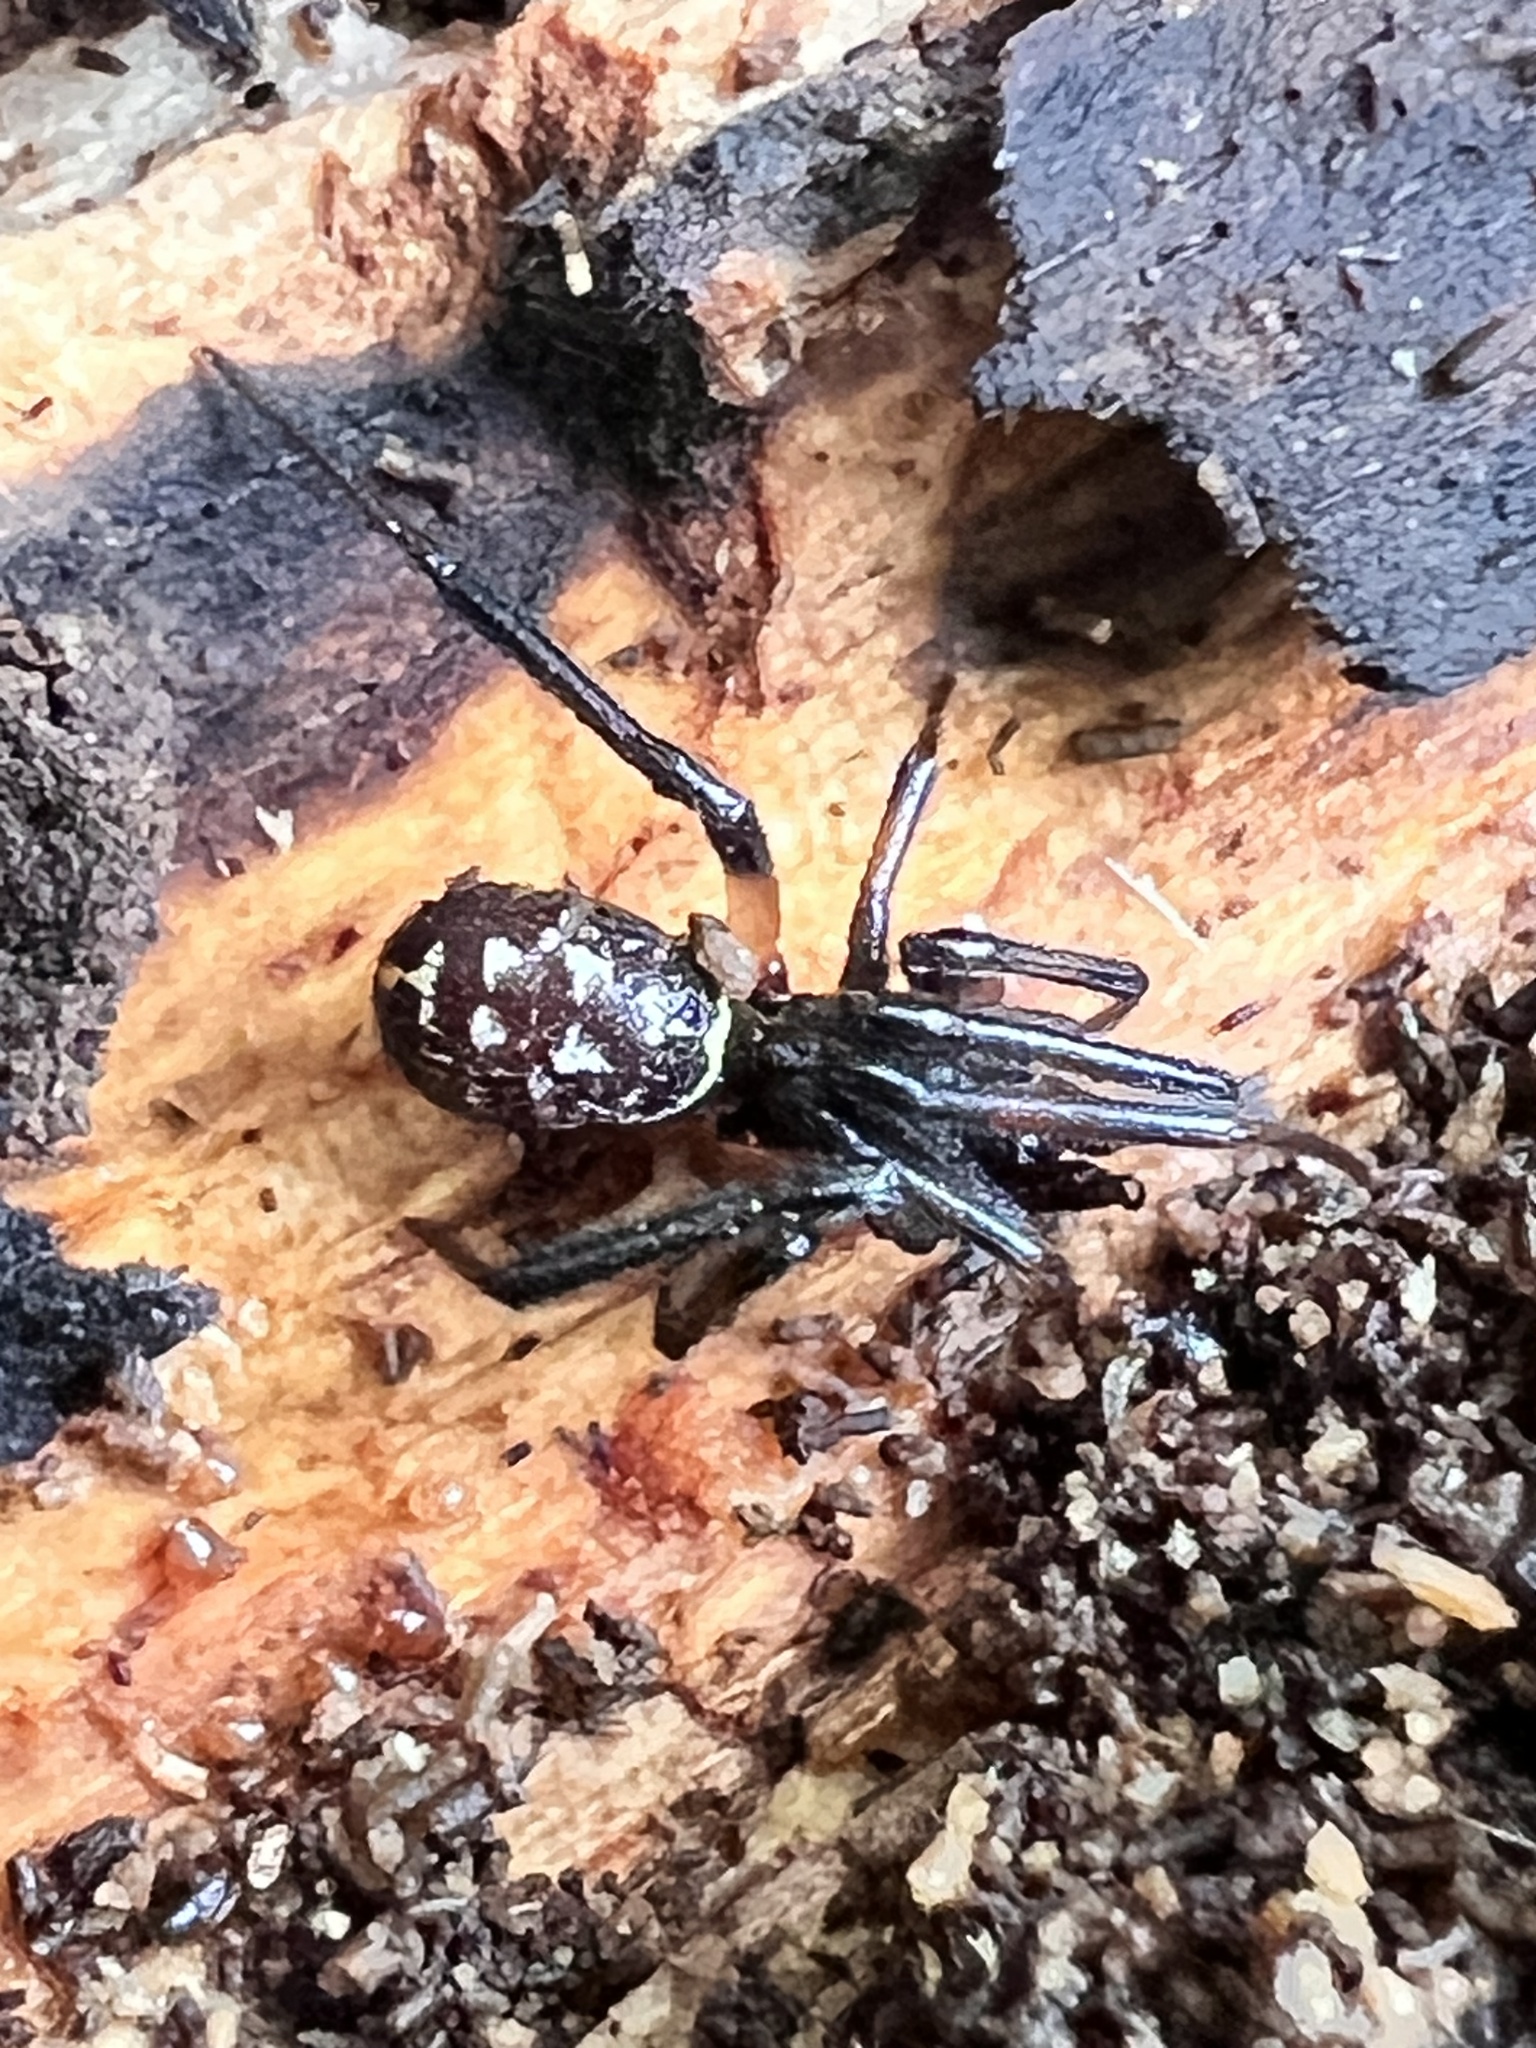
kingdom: Animalia
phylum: Arthropoda
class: Arachnida
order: Araneae
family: Theridiidae
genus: Steatoda
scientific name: Steatoda capensis
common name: Cobweb weaver
